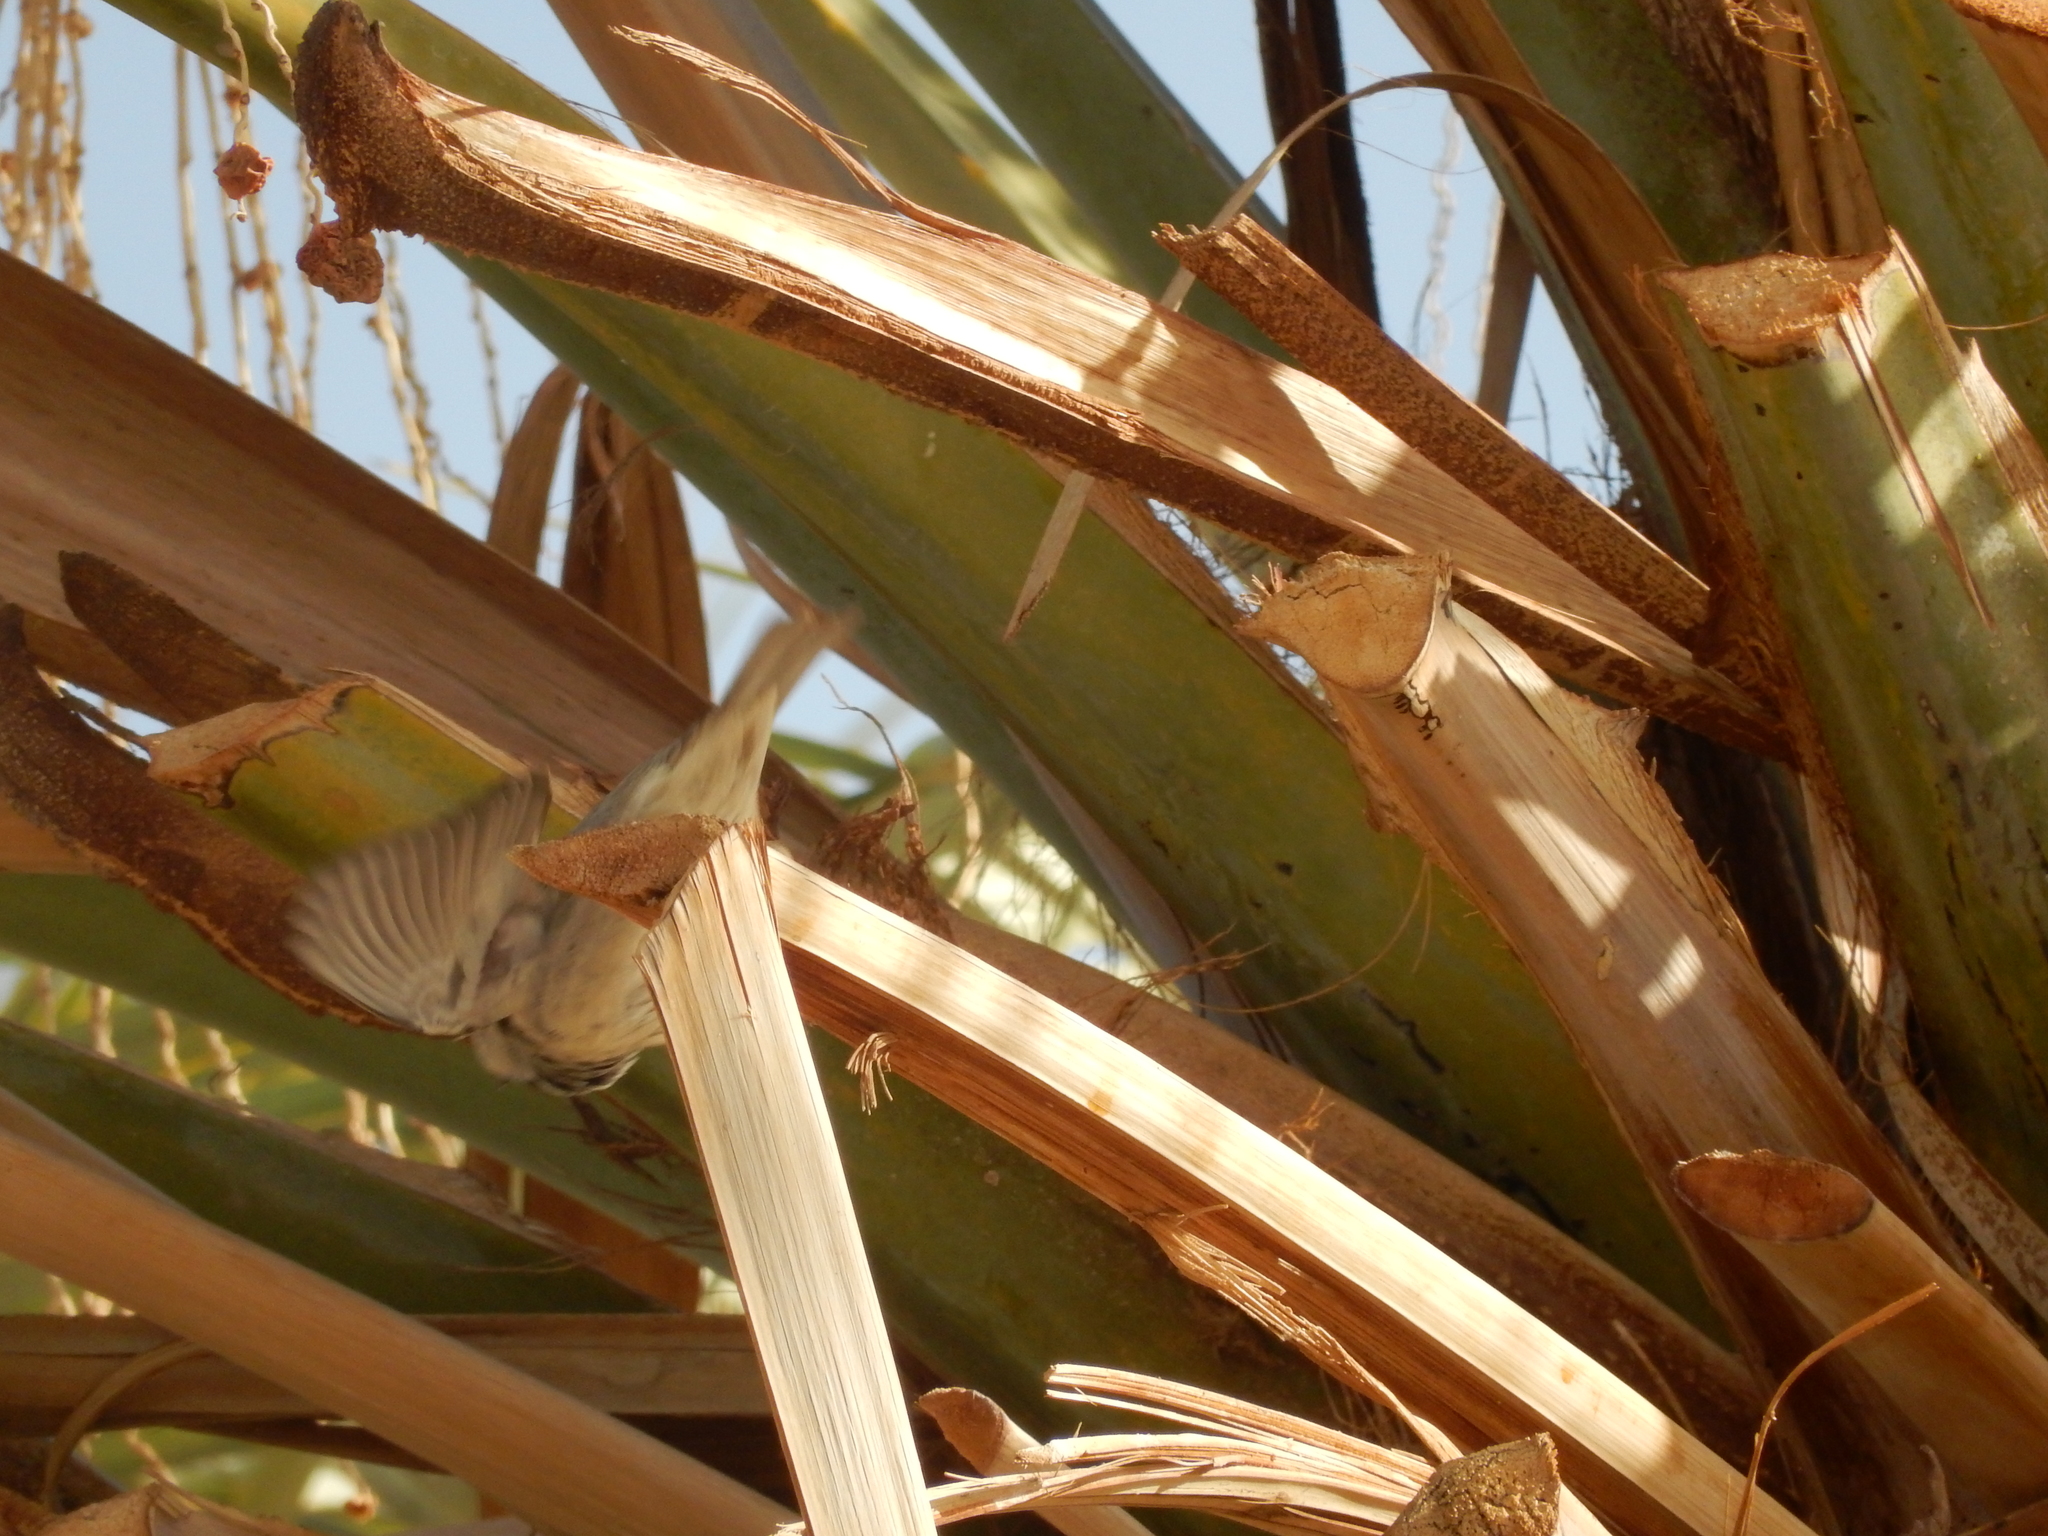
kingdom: Animalia
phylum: Chordata
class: Aves
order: Passeriformes
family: Passeridae
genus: Passer
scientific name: Passer domesticus
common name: House sparrow
